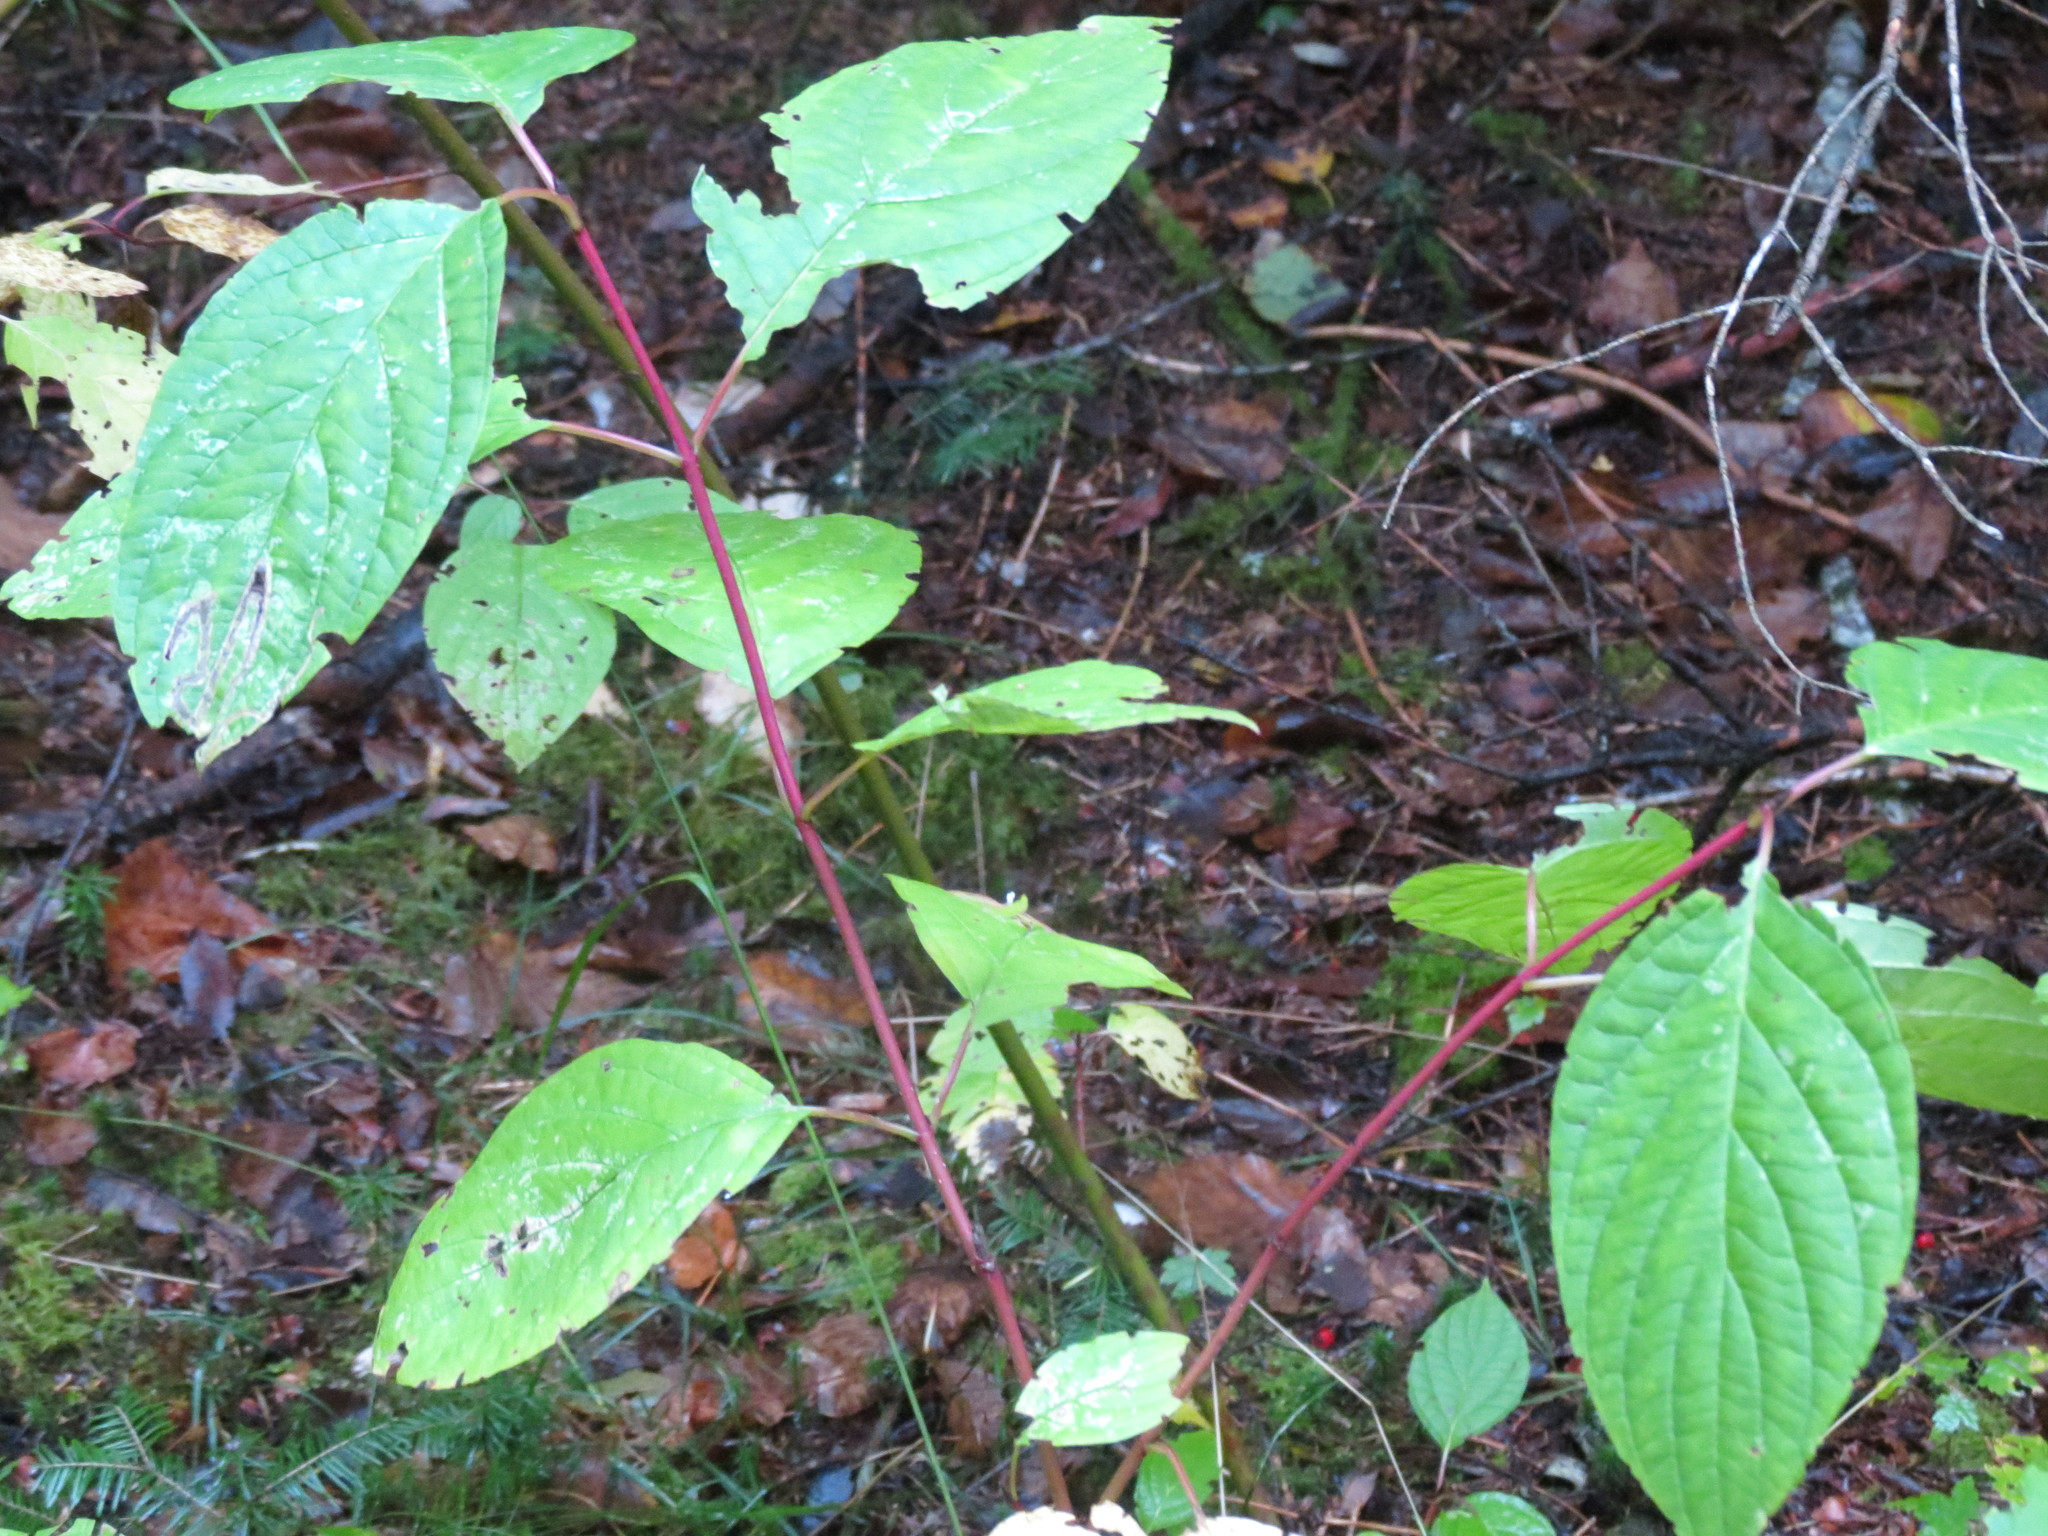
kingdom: Plantae
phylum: Tracheophyta
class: Magnoliopsida
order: Cornales
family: Cornaceae
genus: Cornus
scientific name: Cornus sericea
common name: Red-osier dogwood
